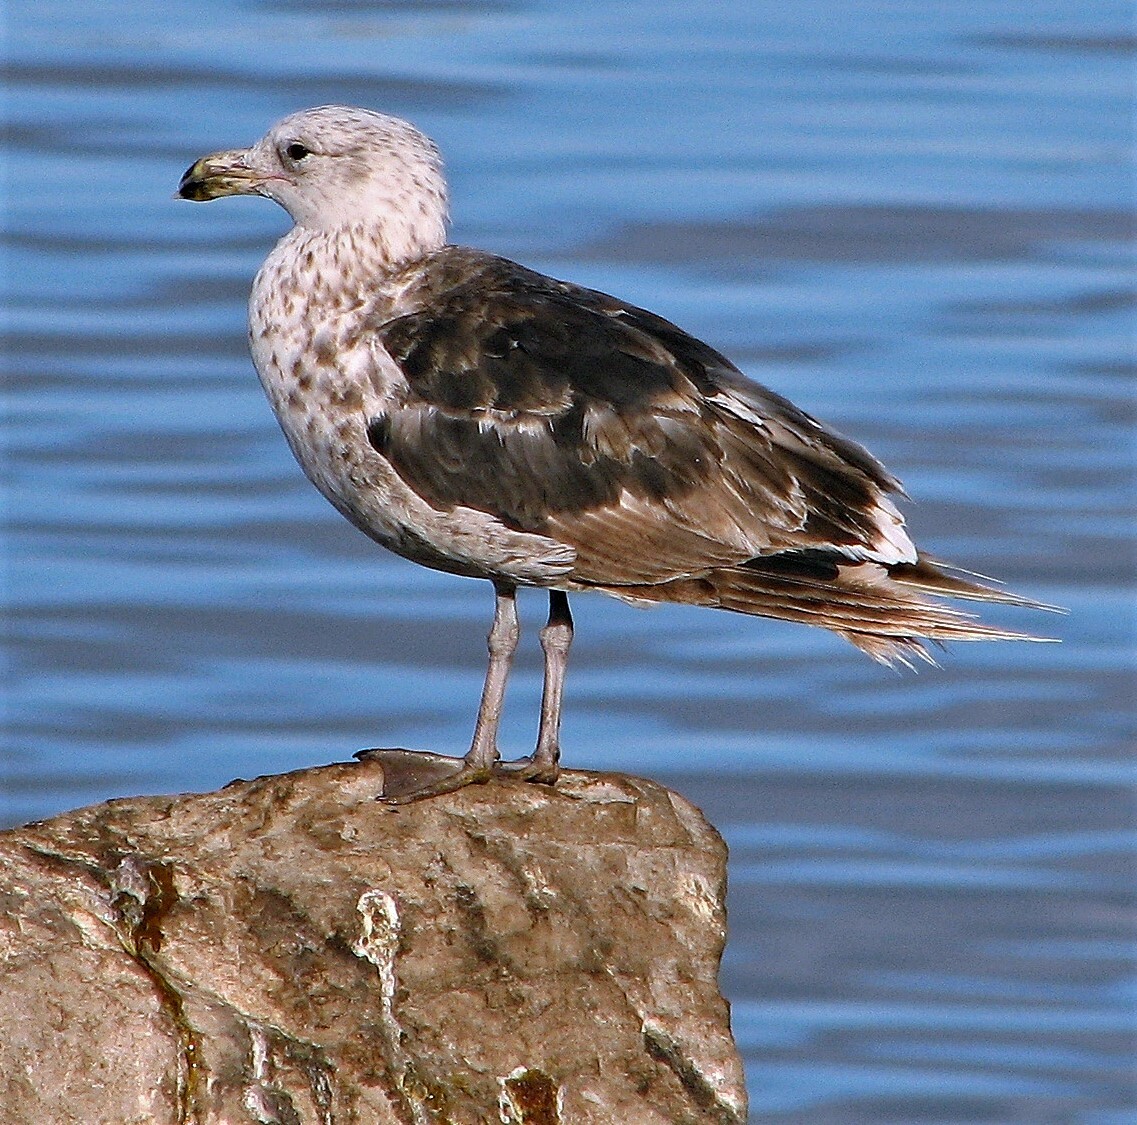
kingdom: Animalia
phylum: Chordata
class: Aves
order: Charadriiformes
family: Laridae
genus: Larus
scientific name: Larus dominicanus
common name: Kelp gull
